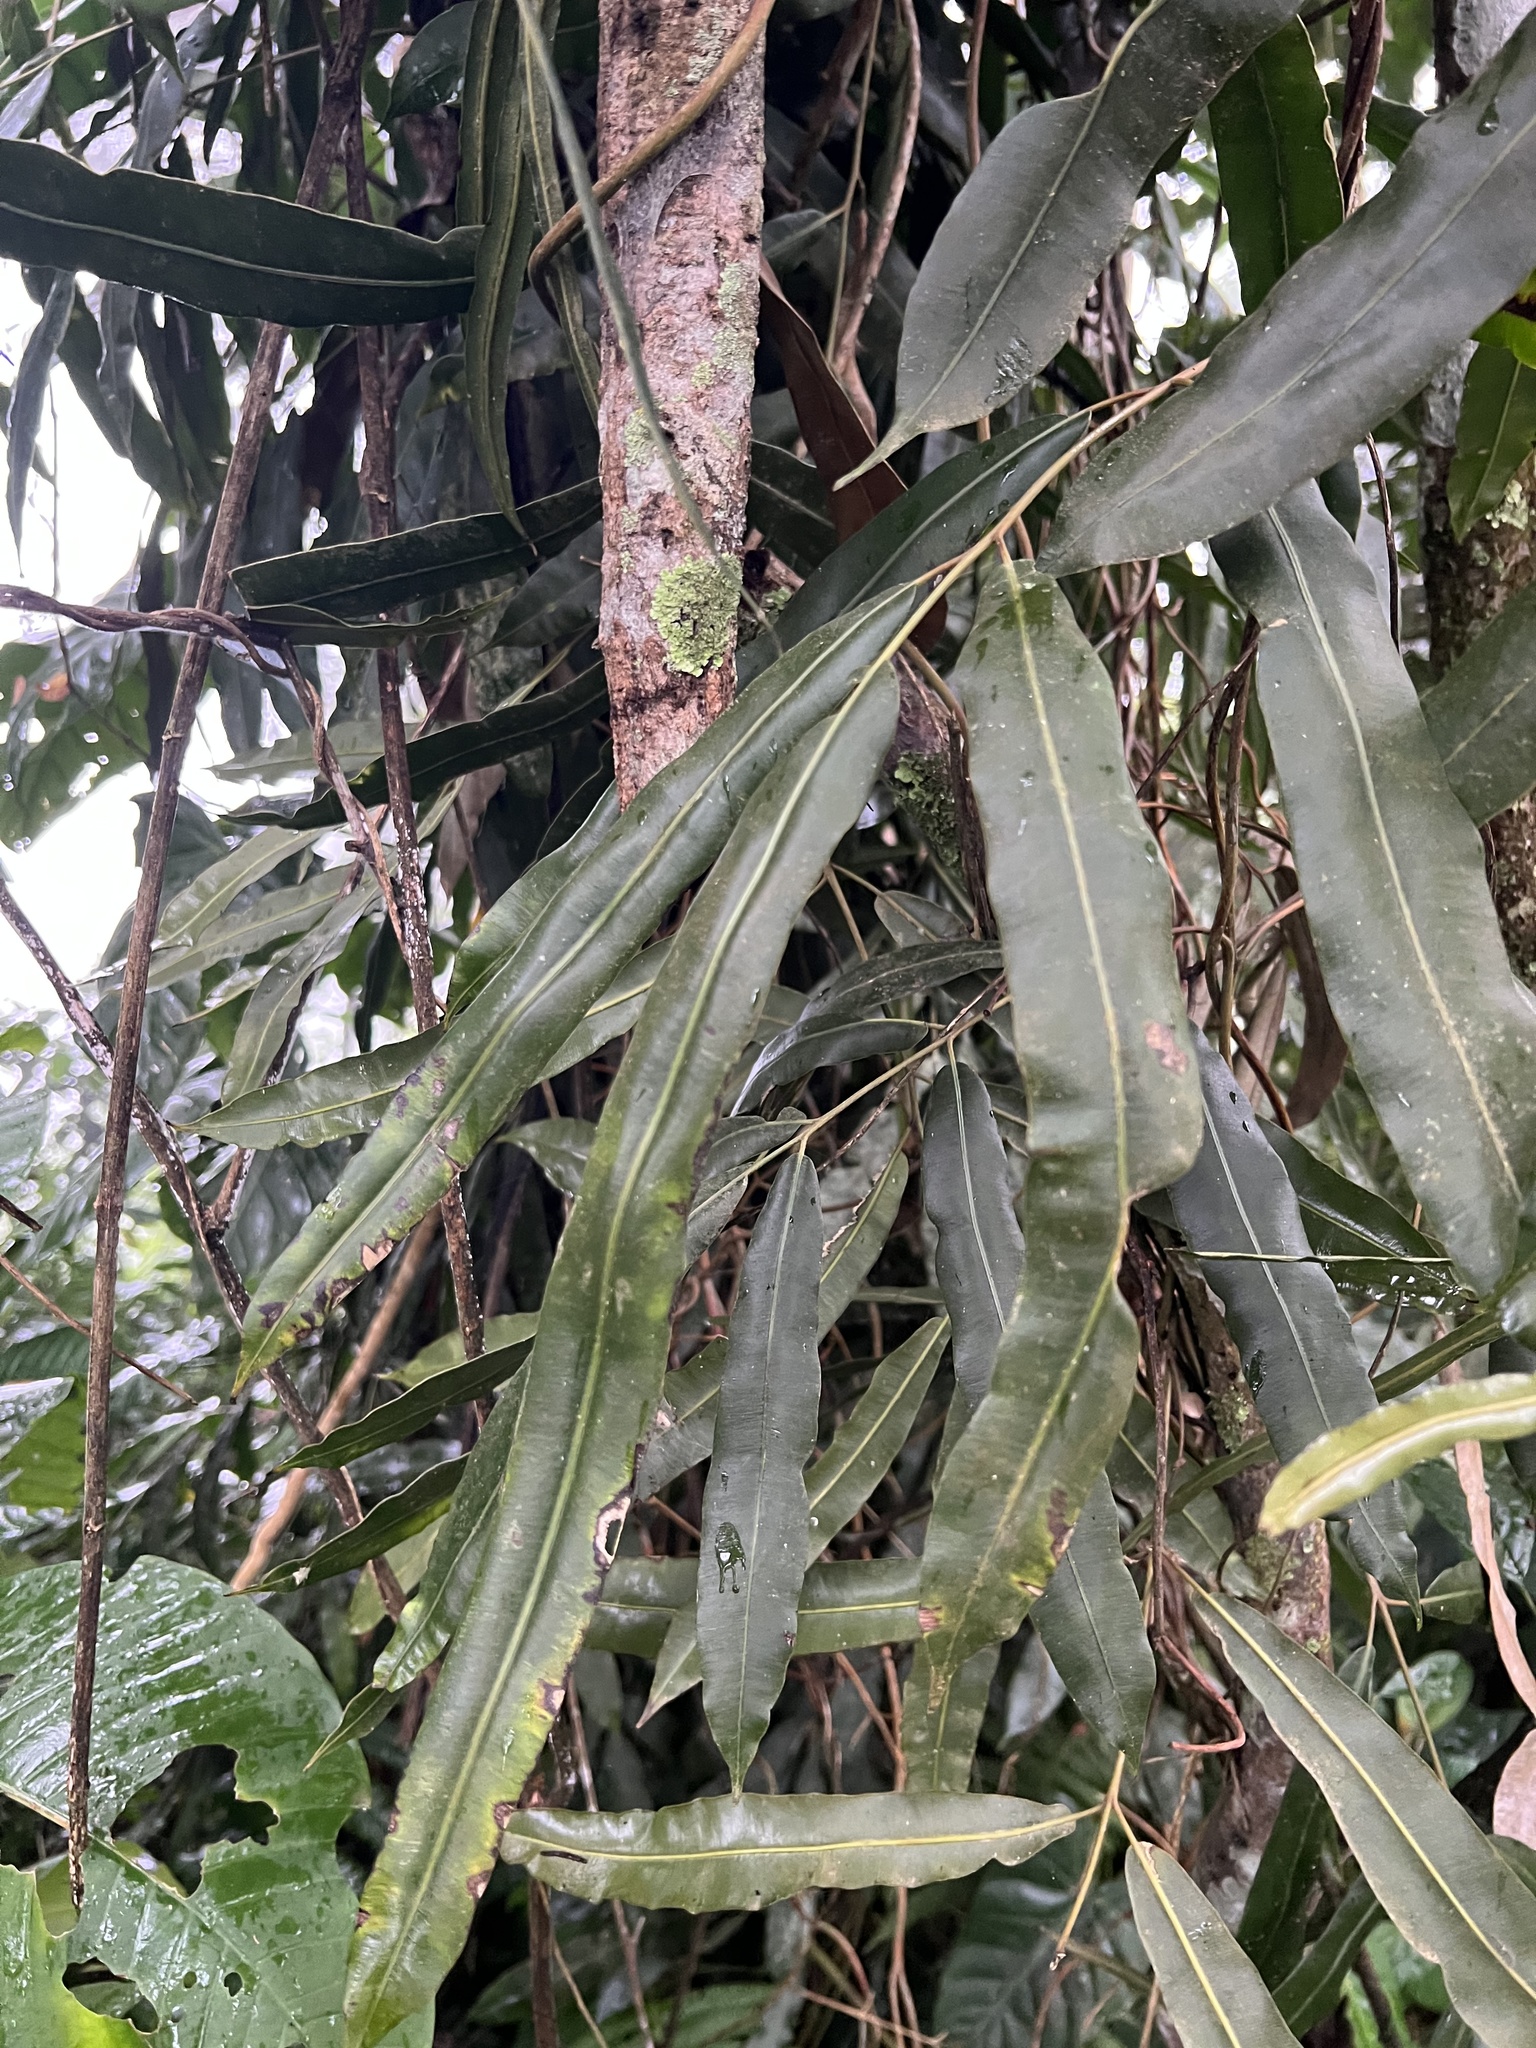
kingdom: Plantae
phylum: Tracheophyta
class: Polypodiopsida
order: Polypodiales
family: Blechnaceae
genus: Salpichlaena
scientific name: Salpichlaena volubilis
